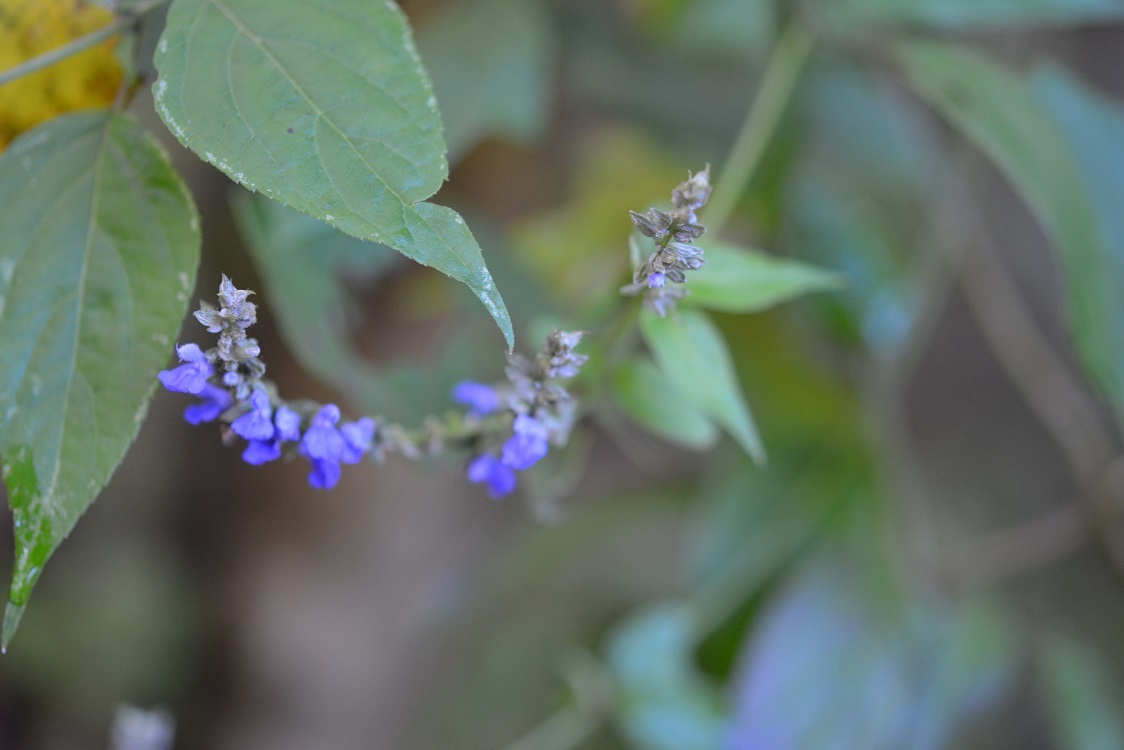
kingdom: Plantae
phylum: Tracheophyta
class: Magnoliopsida
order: Lamiales
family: Lamiaceae
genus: Salvia
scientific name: Salvia connivens
